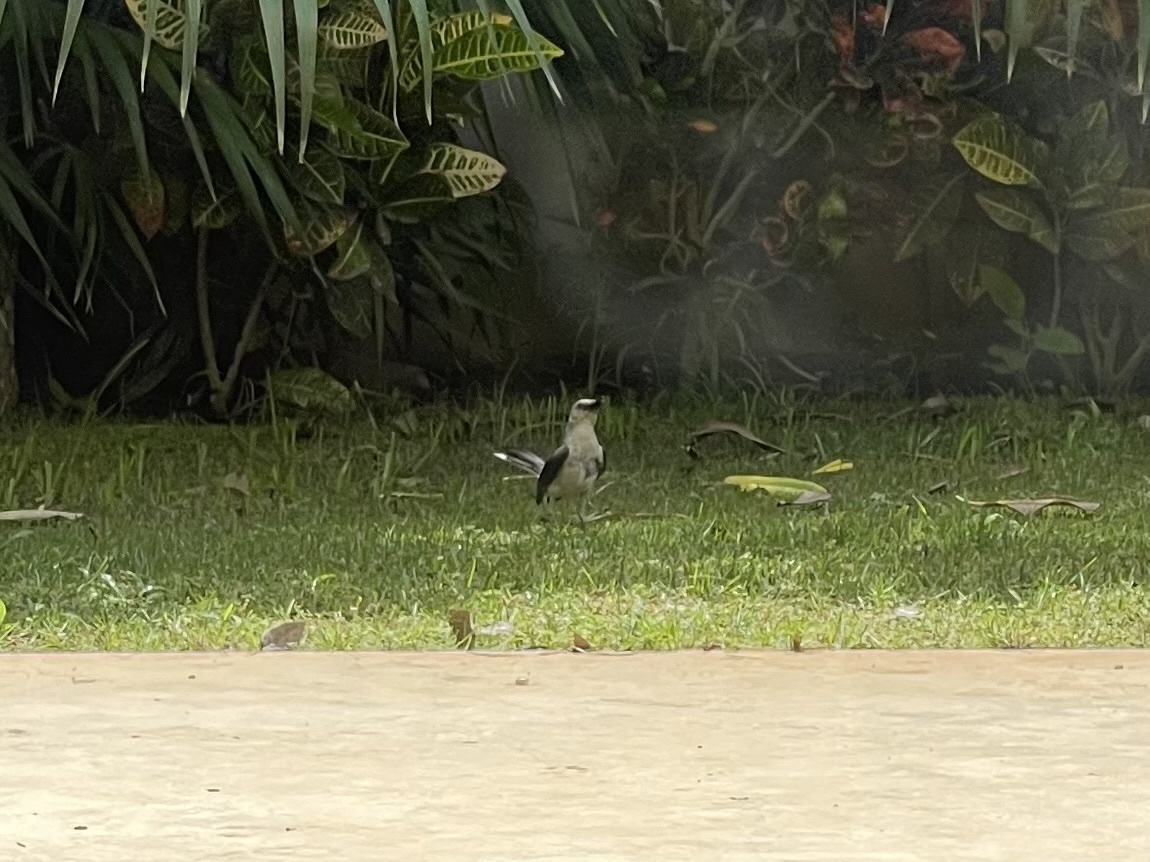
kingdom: Animalia
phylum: Chordata
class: Aves
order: Passeriformes
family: Mimidae
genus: Mimus
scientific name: Mimus gilvus
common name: Tropical mockingbird
